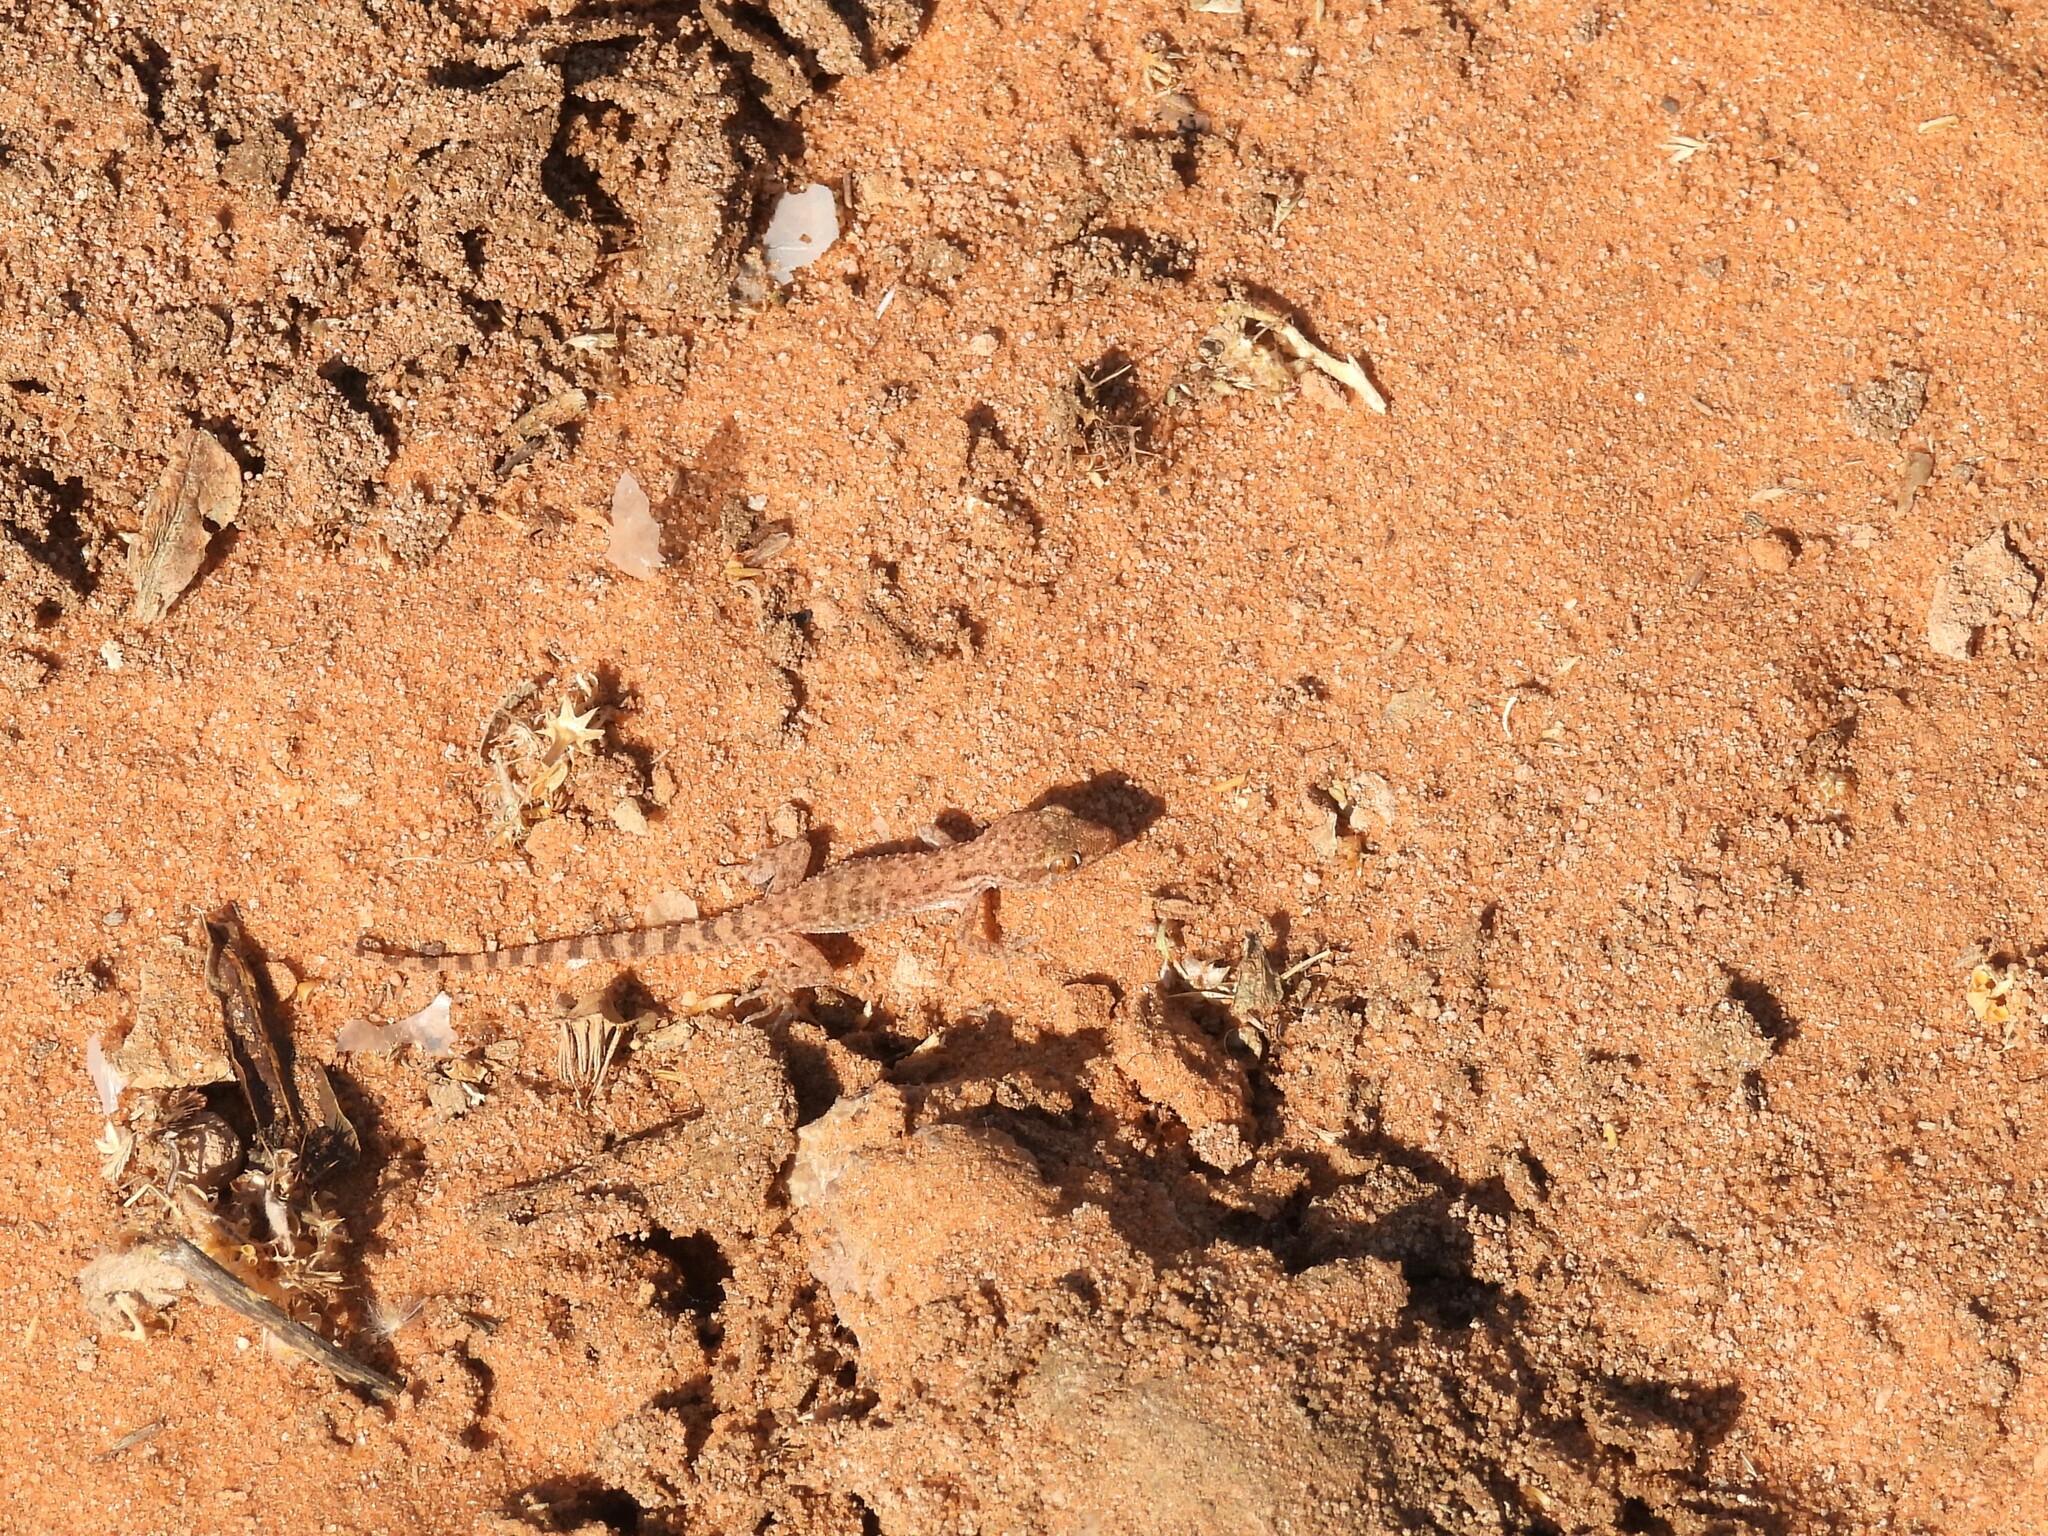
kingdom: Animalia
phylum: Chordata
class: Squamata
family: Gekkonidae
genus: Bunopus
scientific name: Bunopus tuberculatus
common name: Southern tuberculated gecko
